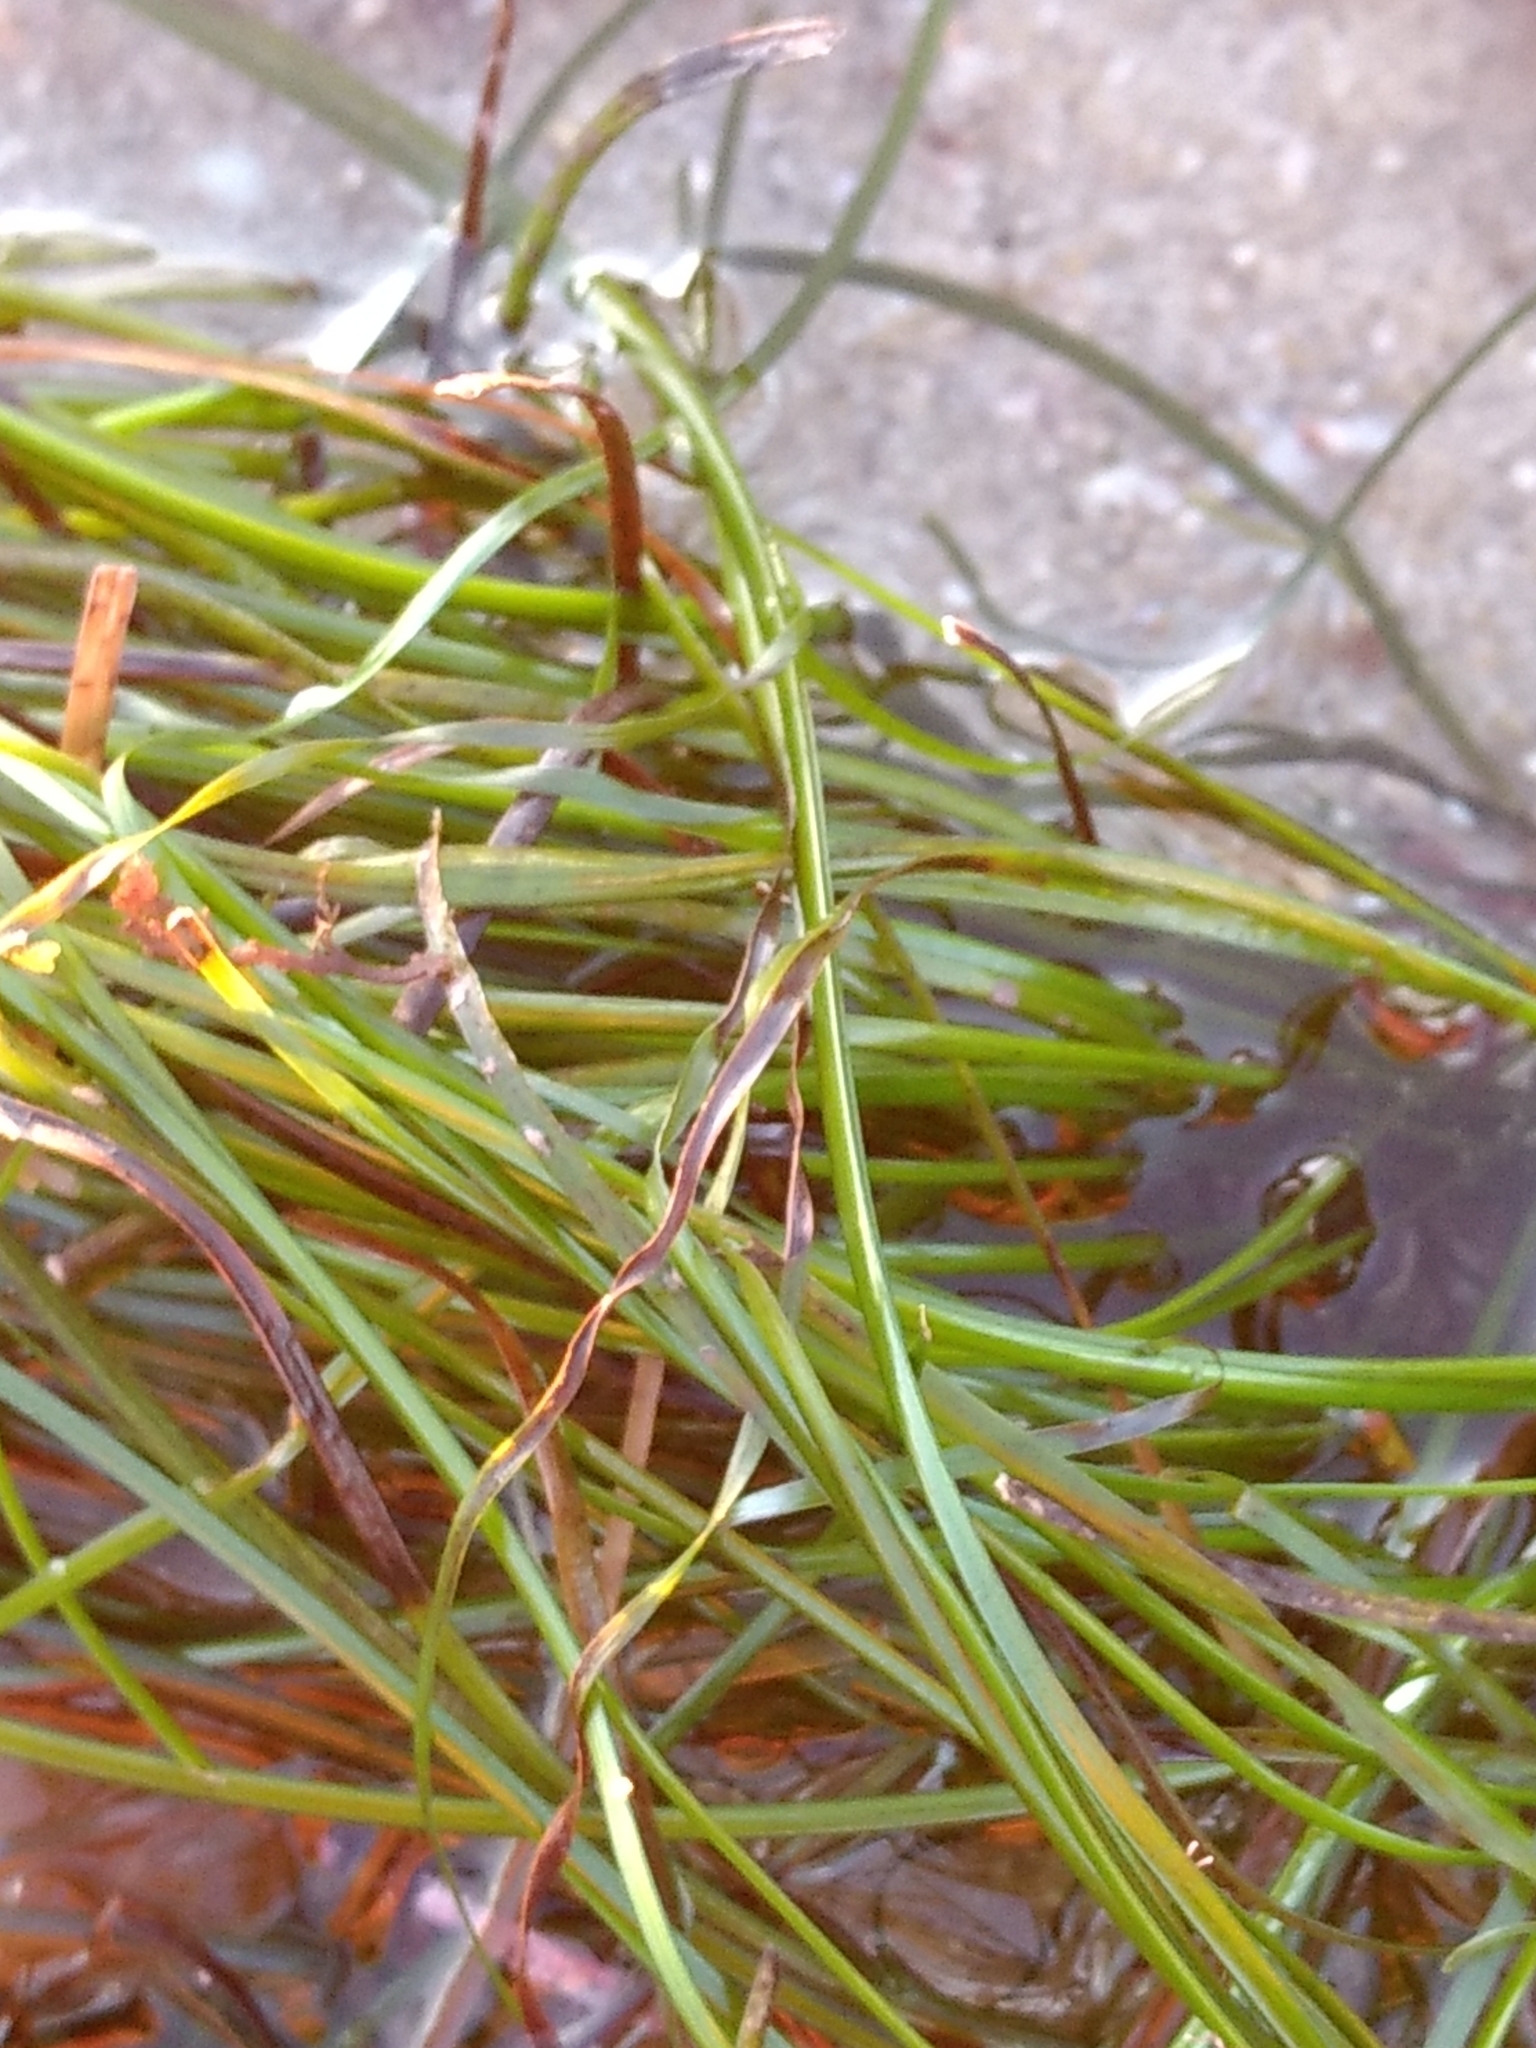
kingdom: Plantae
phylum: Tracheophyta
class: Liliopsida
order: Alismatales
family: Zosteraceae
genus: Phyllospadix
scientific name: Phyllospadix torreyi
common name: Surfgrass
